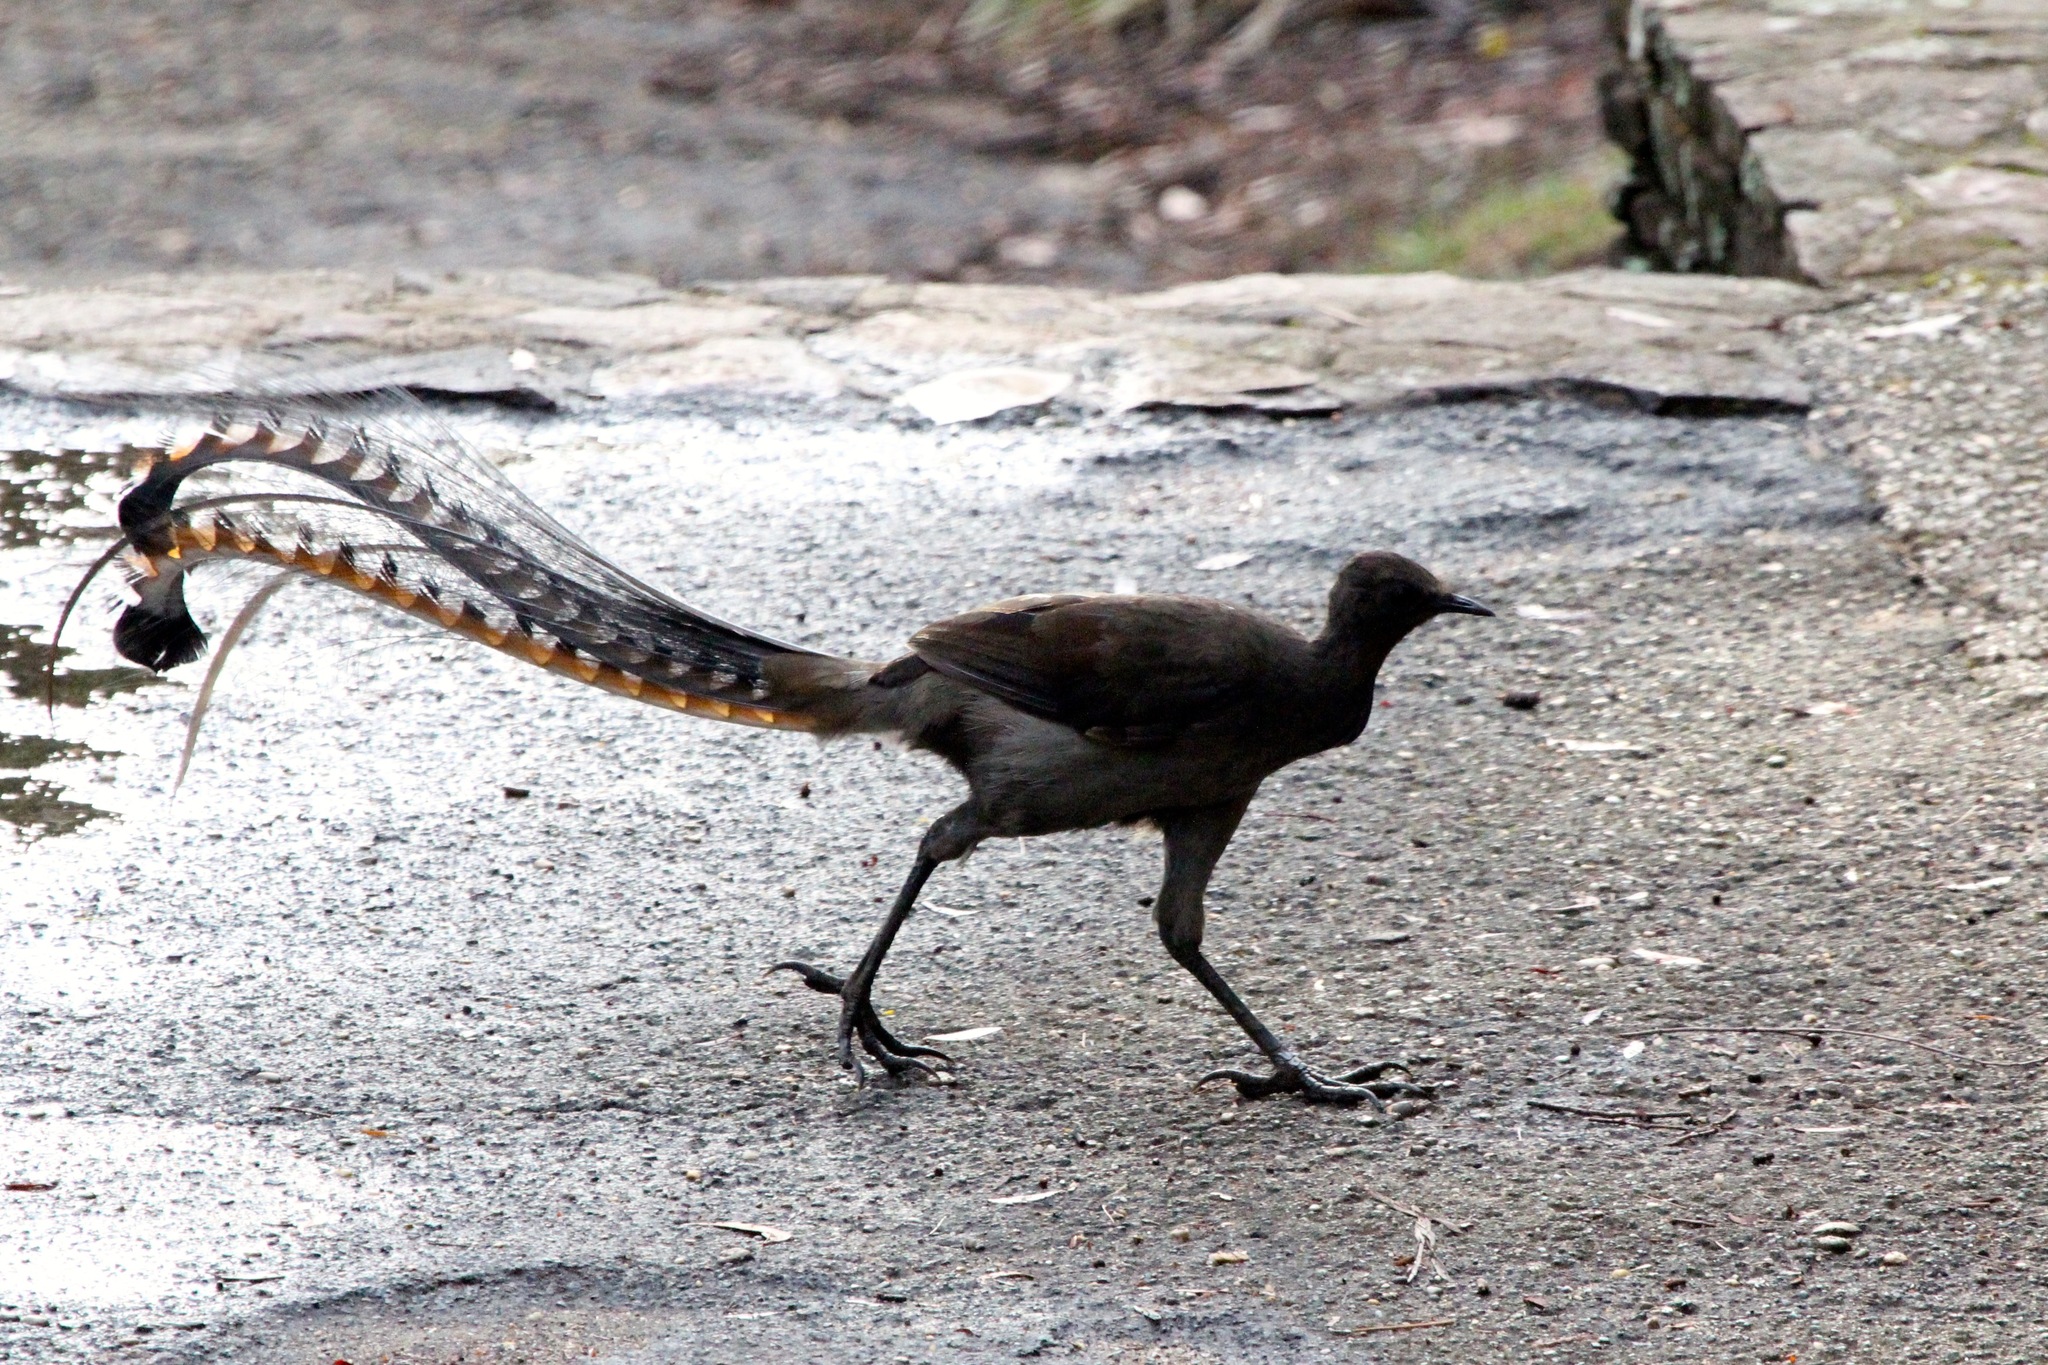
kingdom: Animalia
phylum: Chordata
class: Aves
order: Passeriformes
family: Menuridae
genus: Menura
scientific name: Menura novaehollandiae
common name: Superb lyrebird
